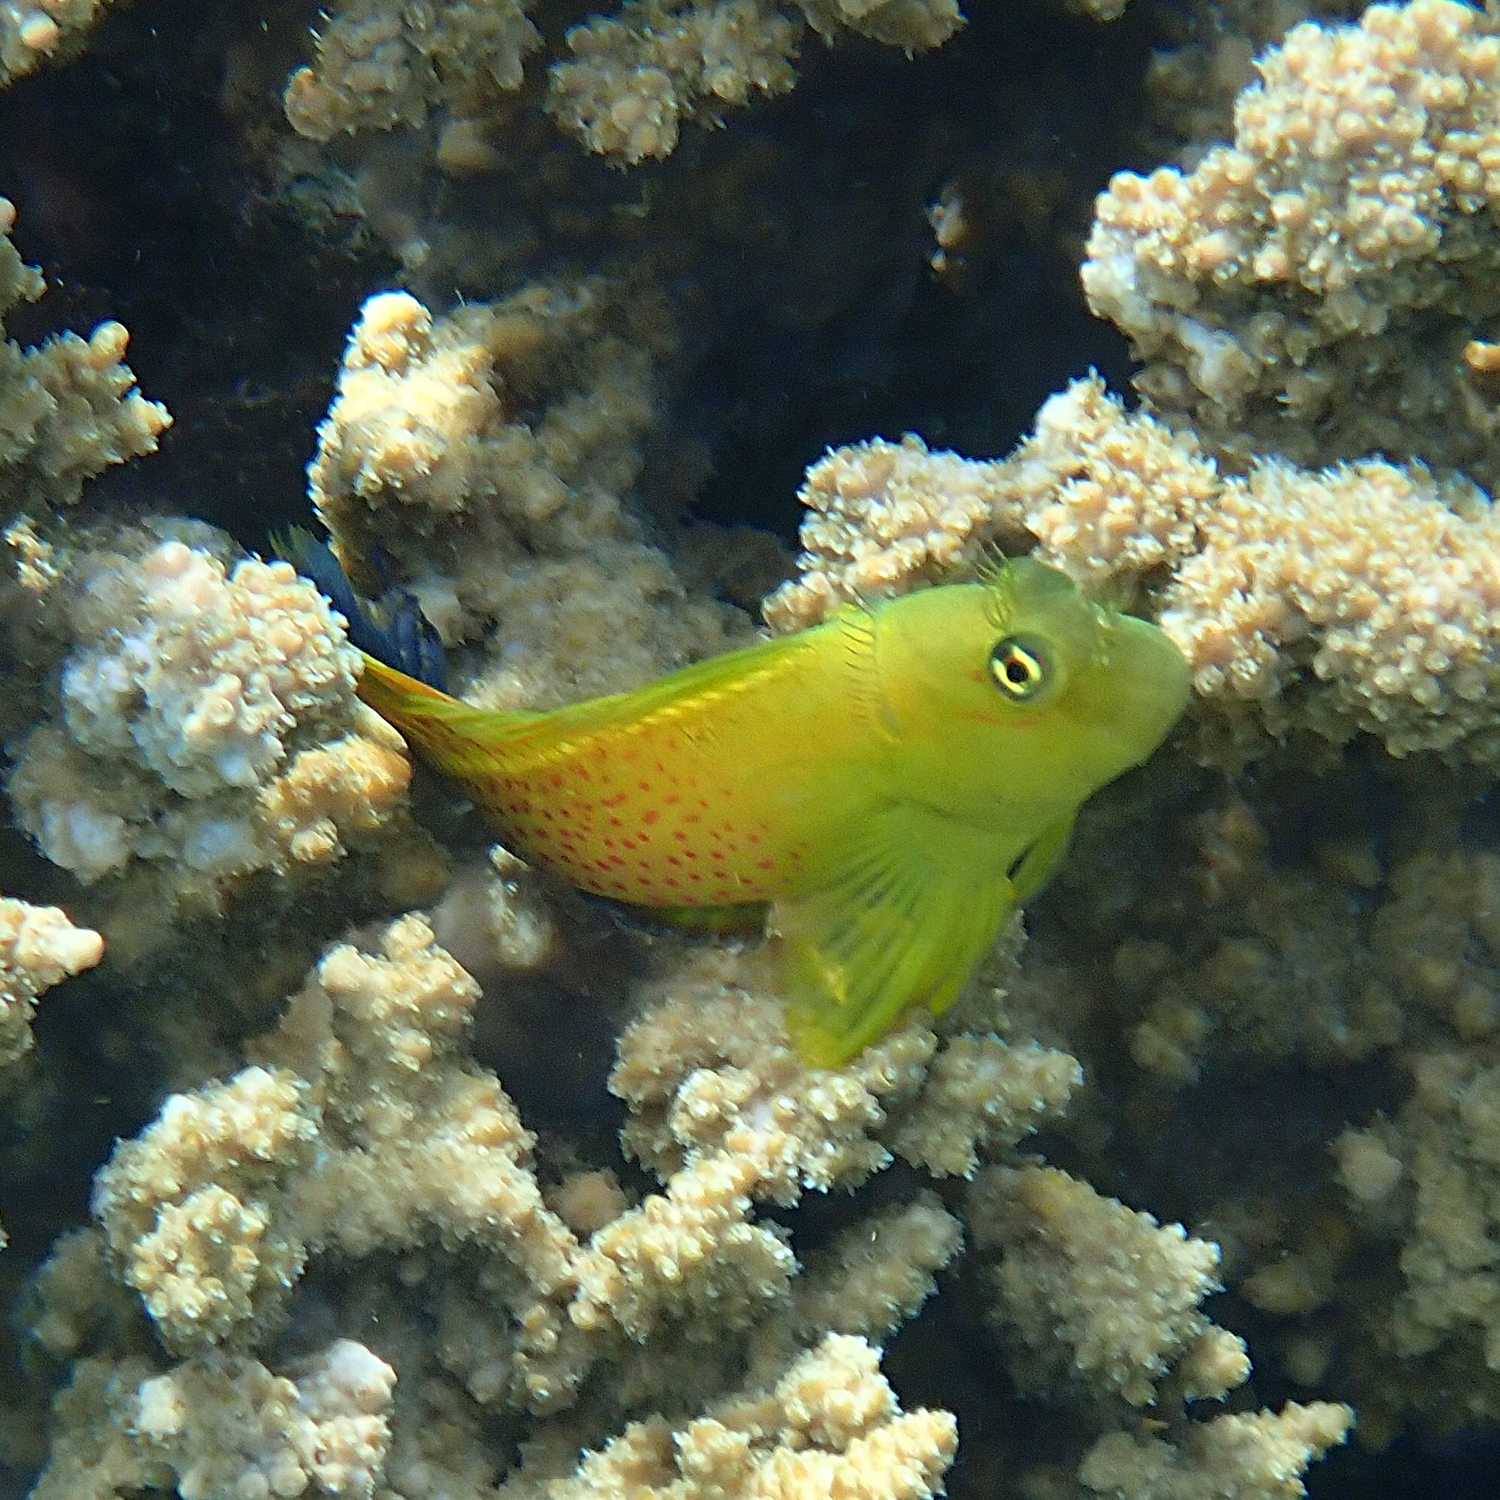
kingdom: Animalia
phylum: Chordata
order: Perciformes
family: Blenniidae
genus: Cirripectes
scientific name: Cirripectes chelomatus
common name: Lady musgrave blenny
